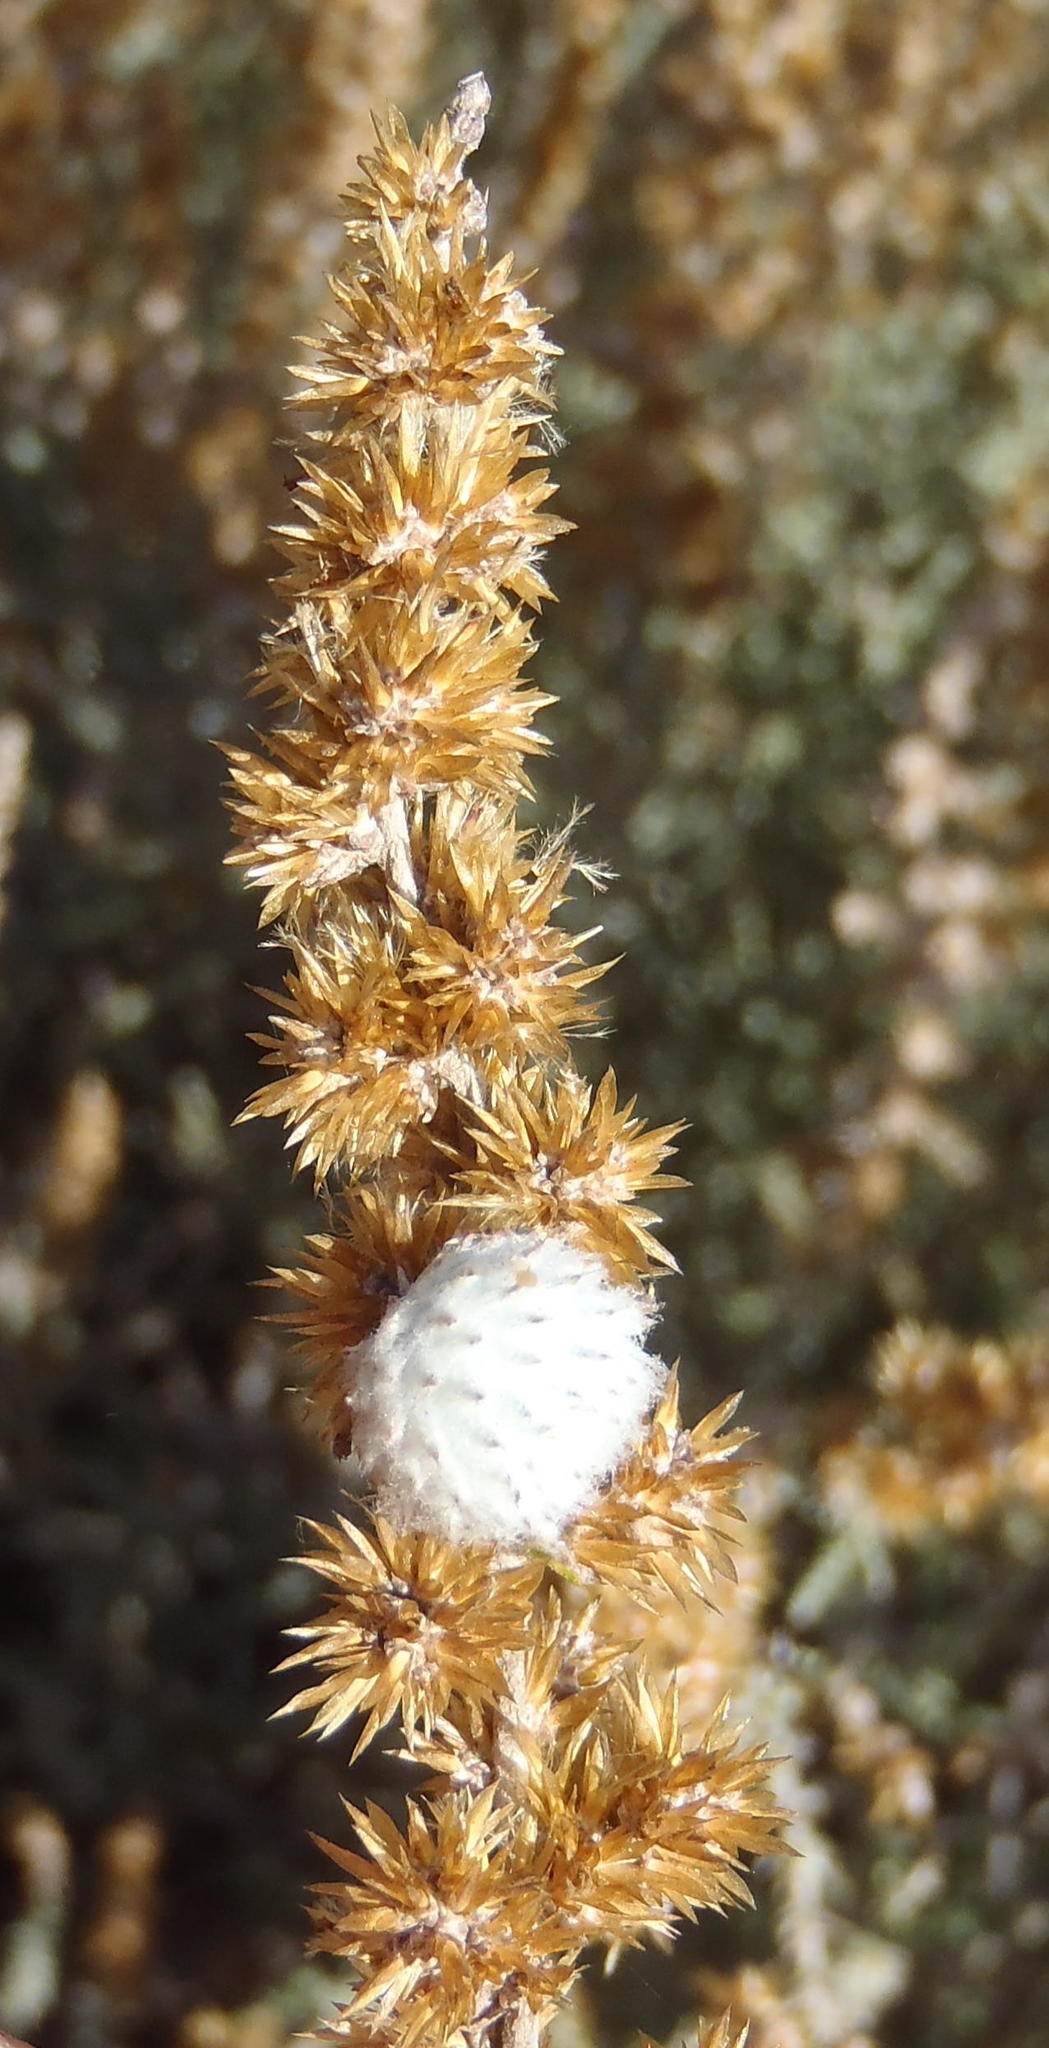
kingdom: Plantae
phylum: Tracheophyta
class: Magnoliopsida
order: Asterales
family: Asteraceae
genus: Seriphium
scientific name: Seriphium plumosum
